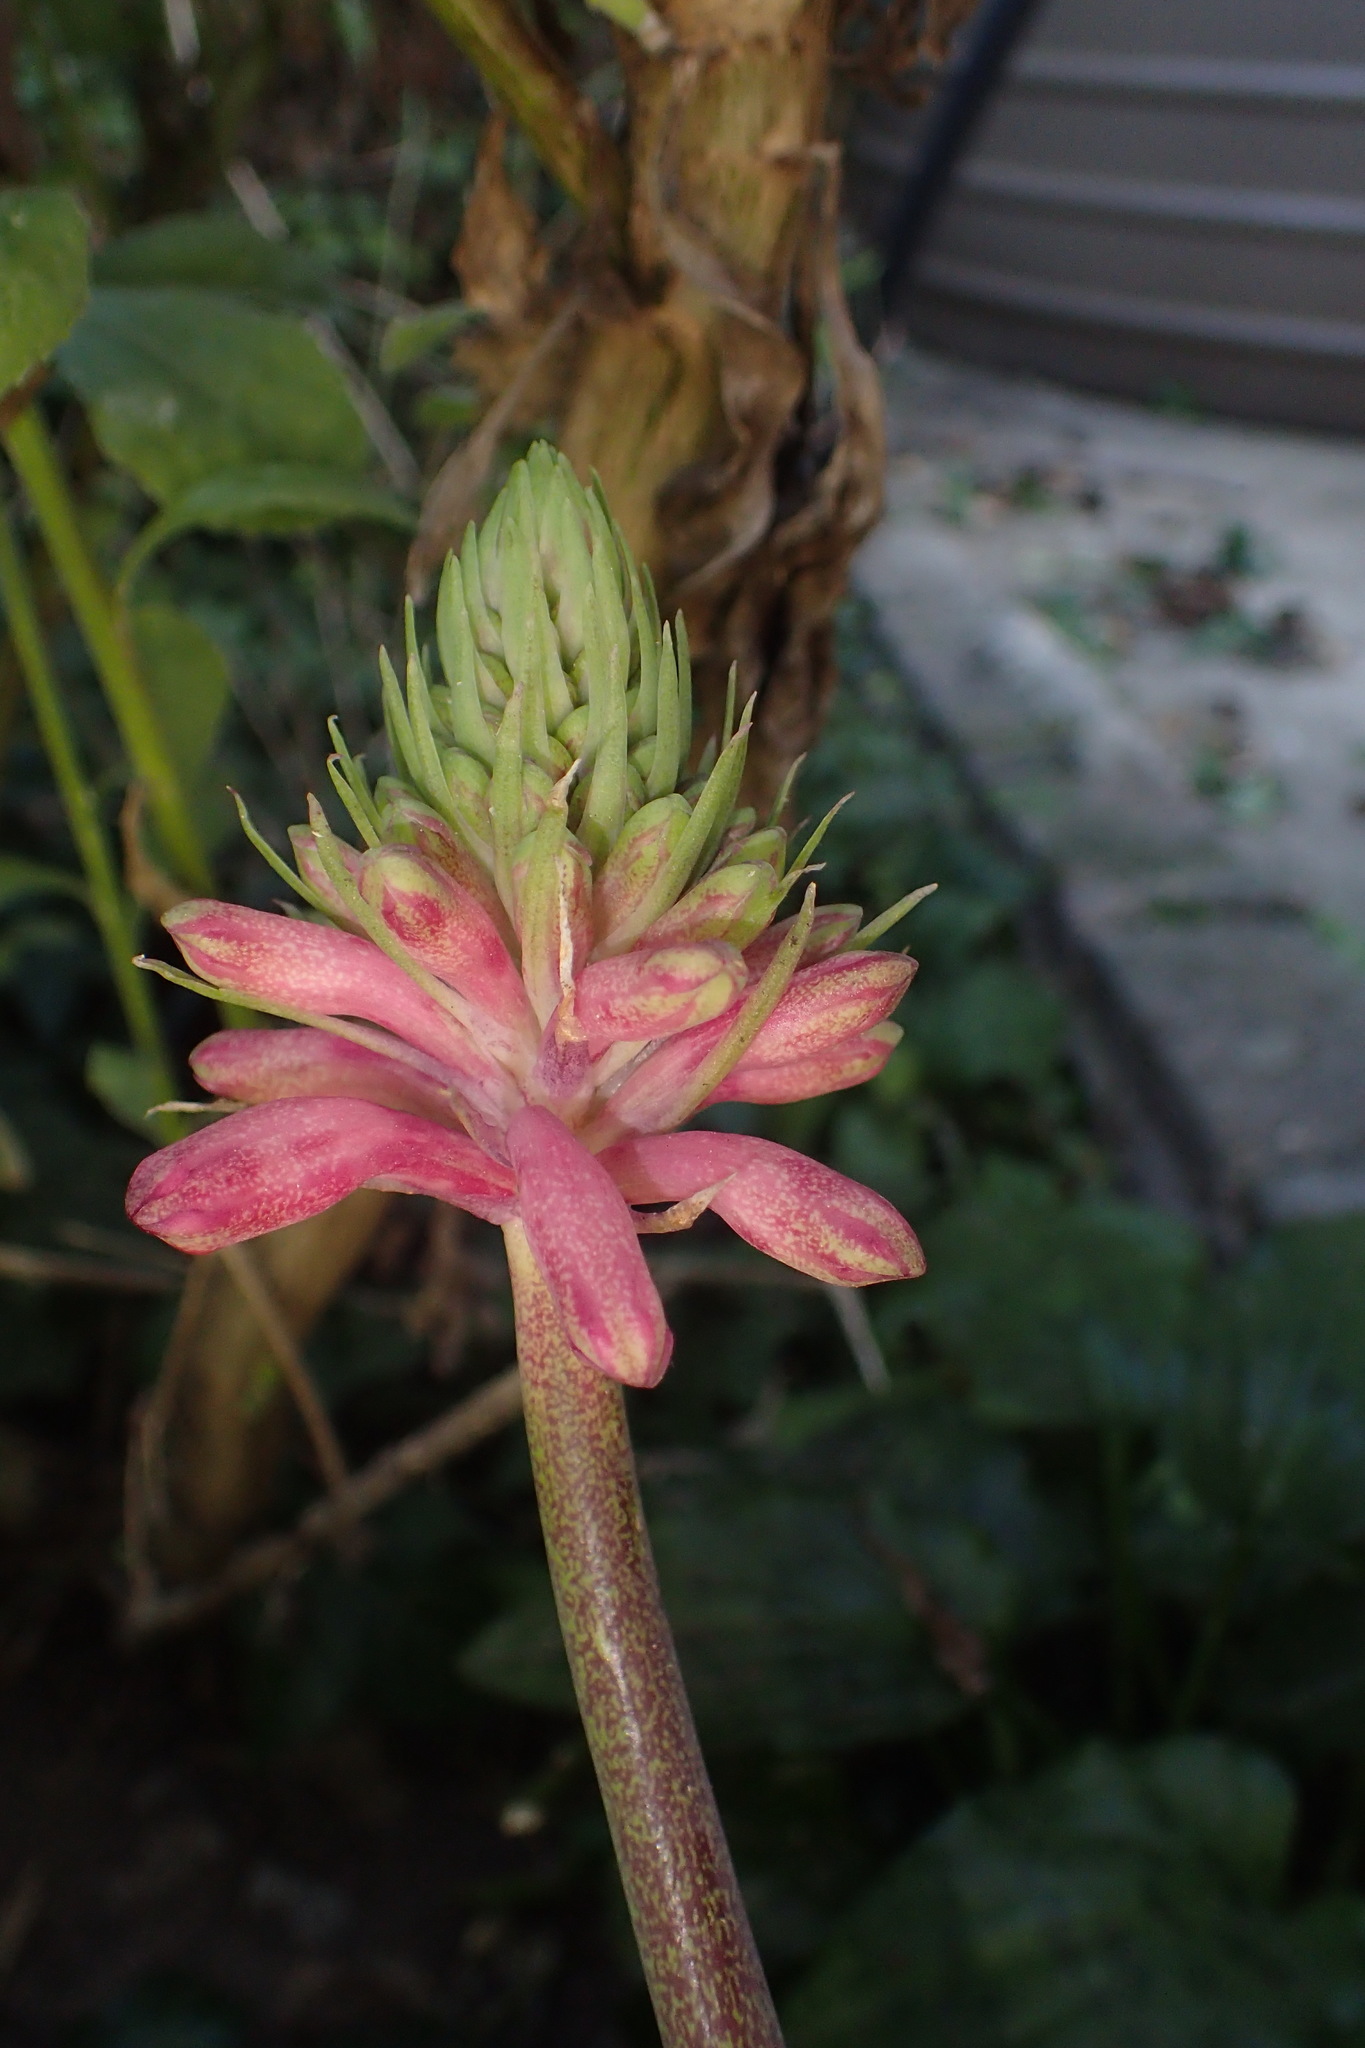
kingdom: Plantae
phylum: Tracheophyta
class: Liliopsida
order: Asparagales
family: Asparagaceae
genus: Veltheimia
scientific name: Veltheimia bracteata
